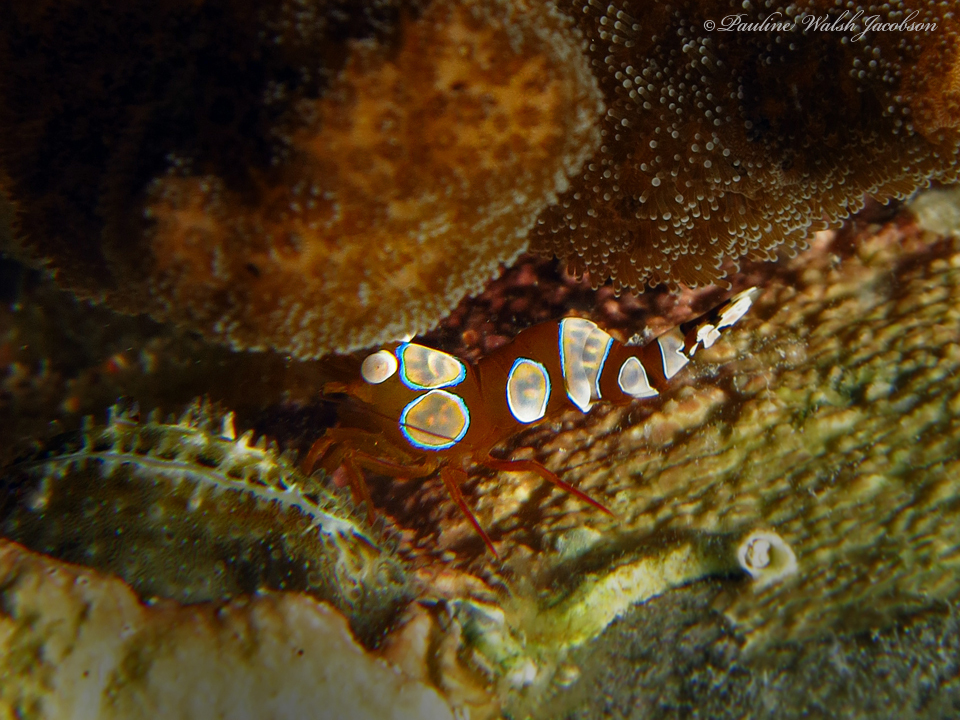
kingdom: Animalia
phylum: Arthropoda
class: Malacostraca
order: Decapoda
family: Thoridae
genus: Thor
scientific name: Thor amboinensis
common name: Squat anemone shrimp
